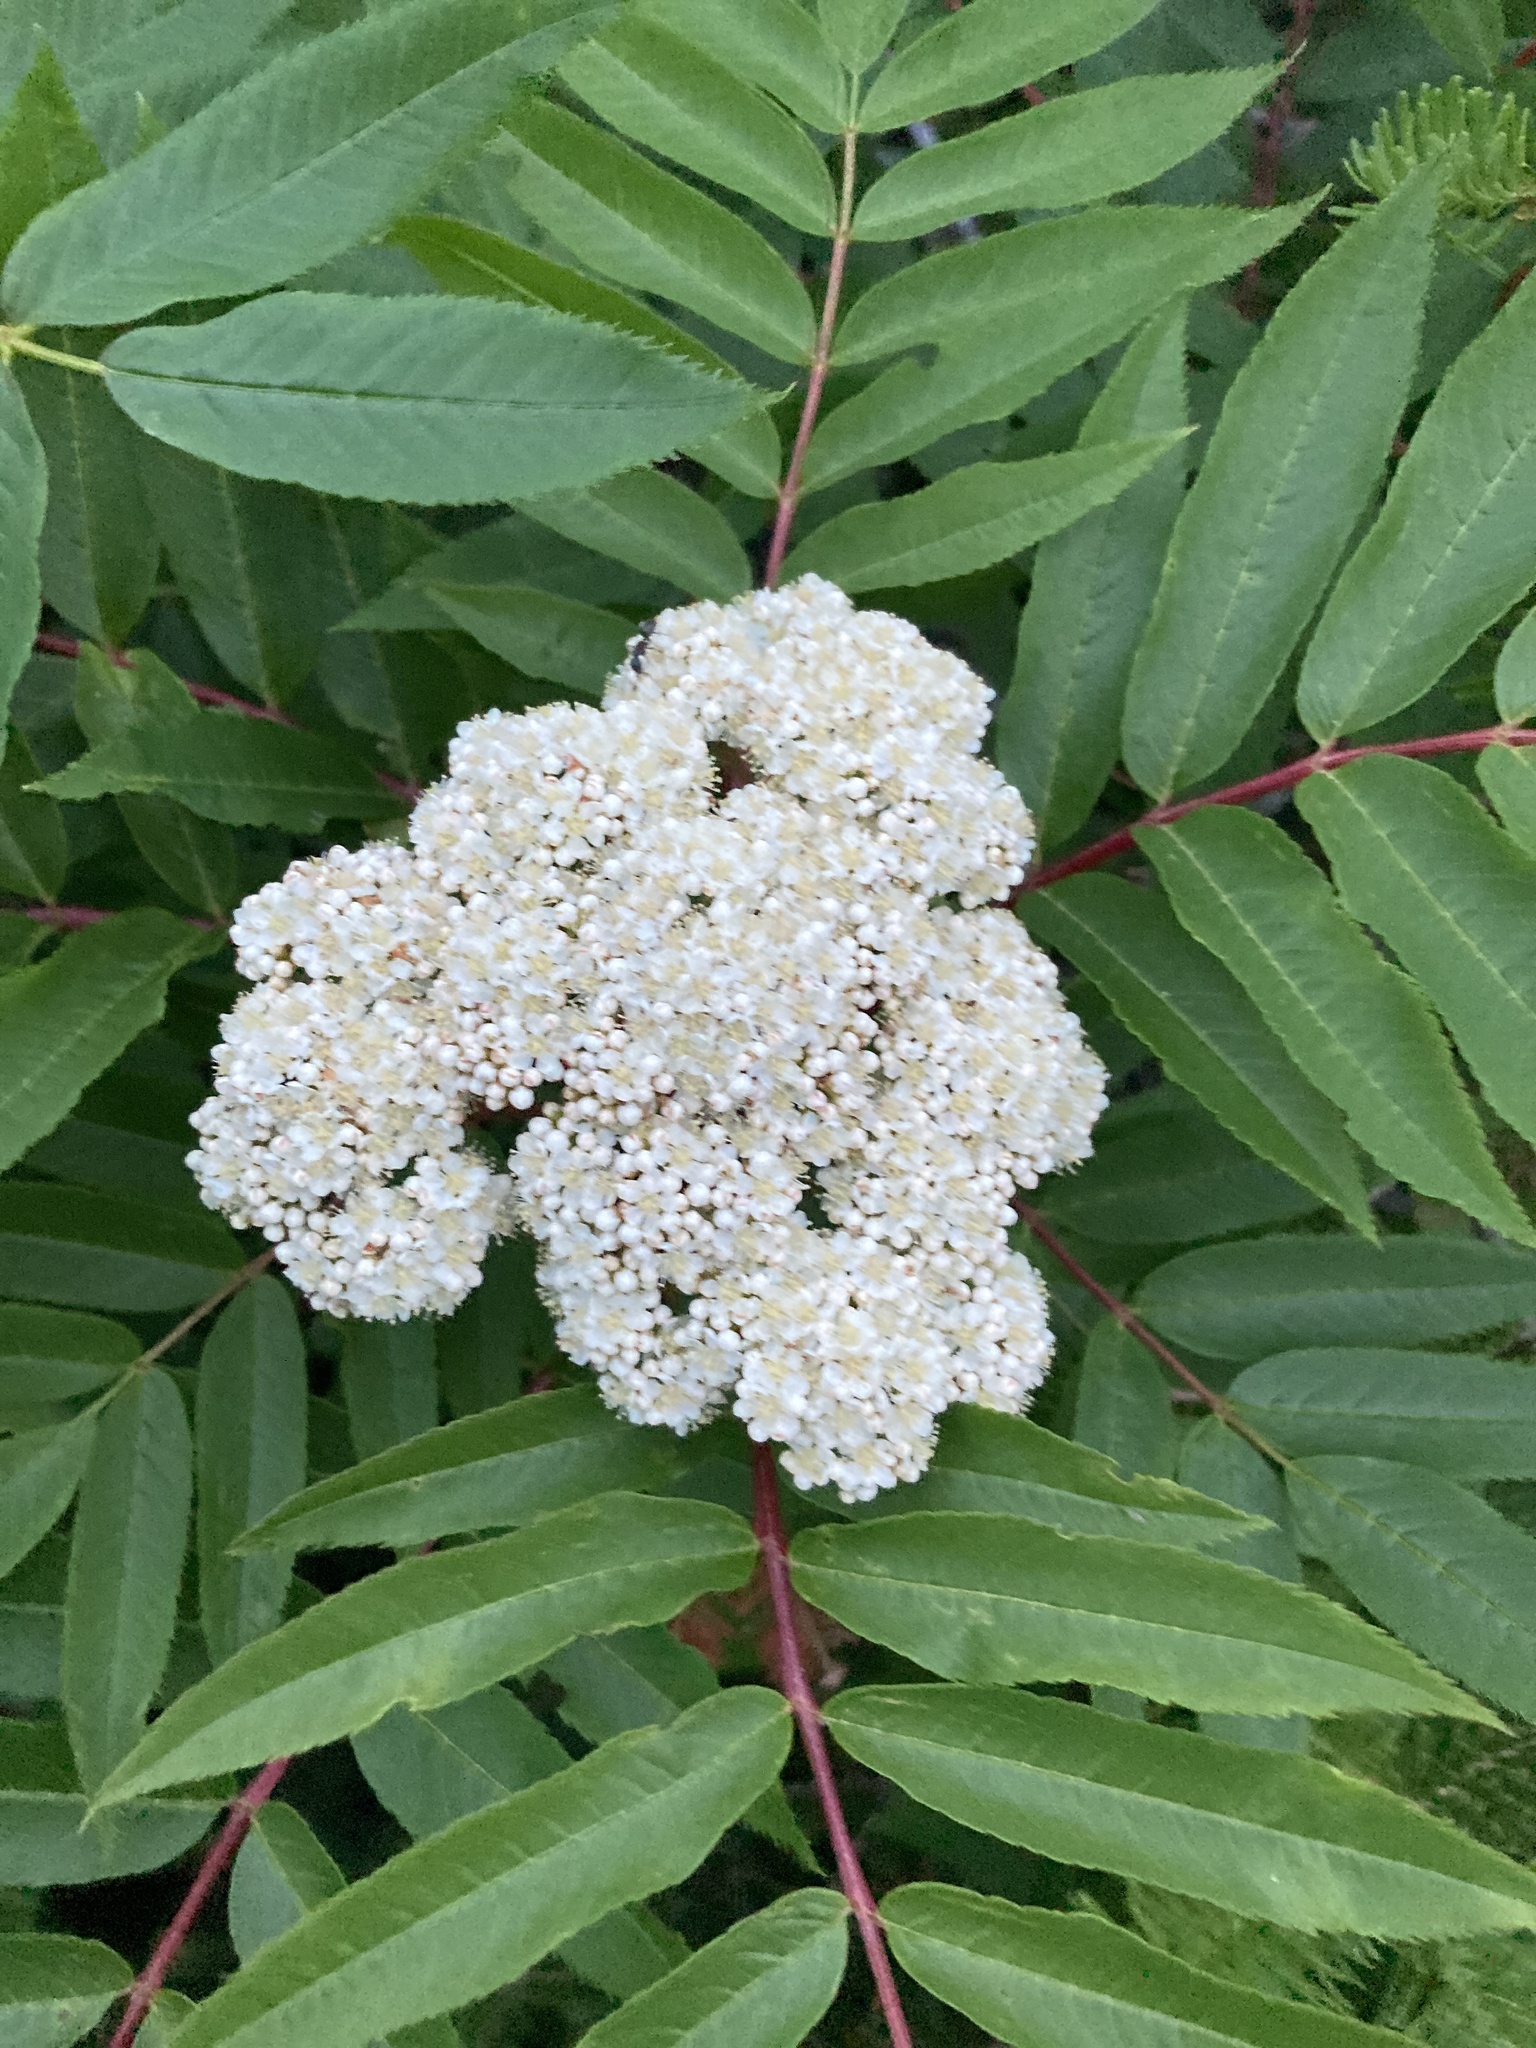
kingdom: Plantae
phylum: Tracheophyta
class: Magnoliopsida
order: Rosales
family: Rosaceae
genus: Sorbus
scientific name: Sorbus americana
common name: American mountain-ash
